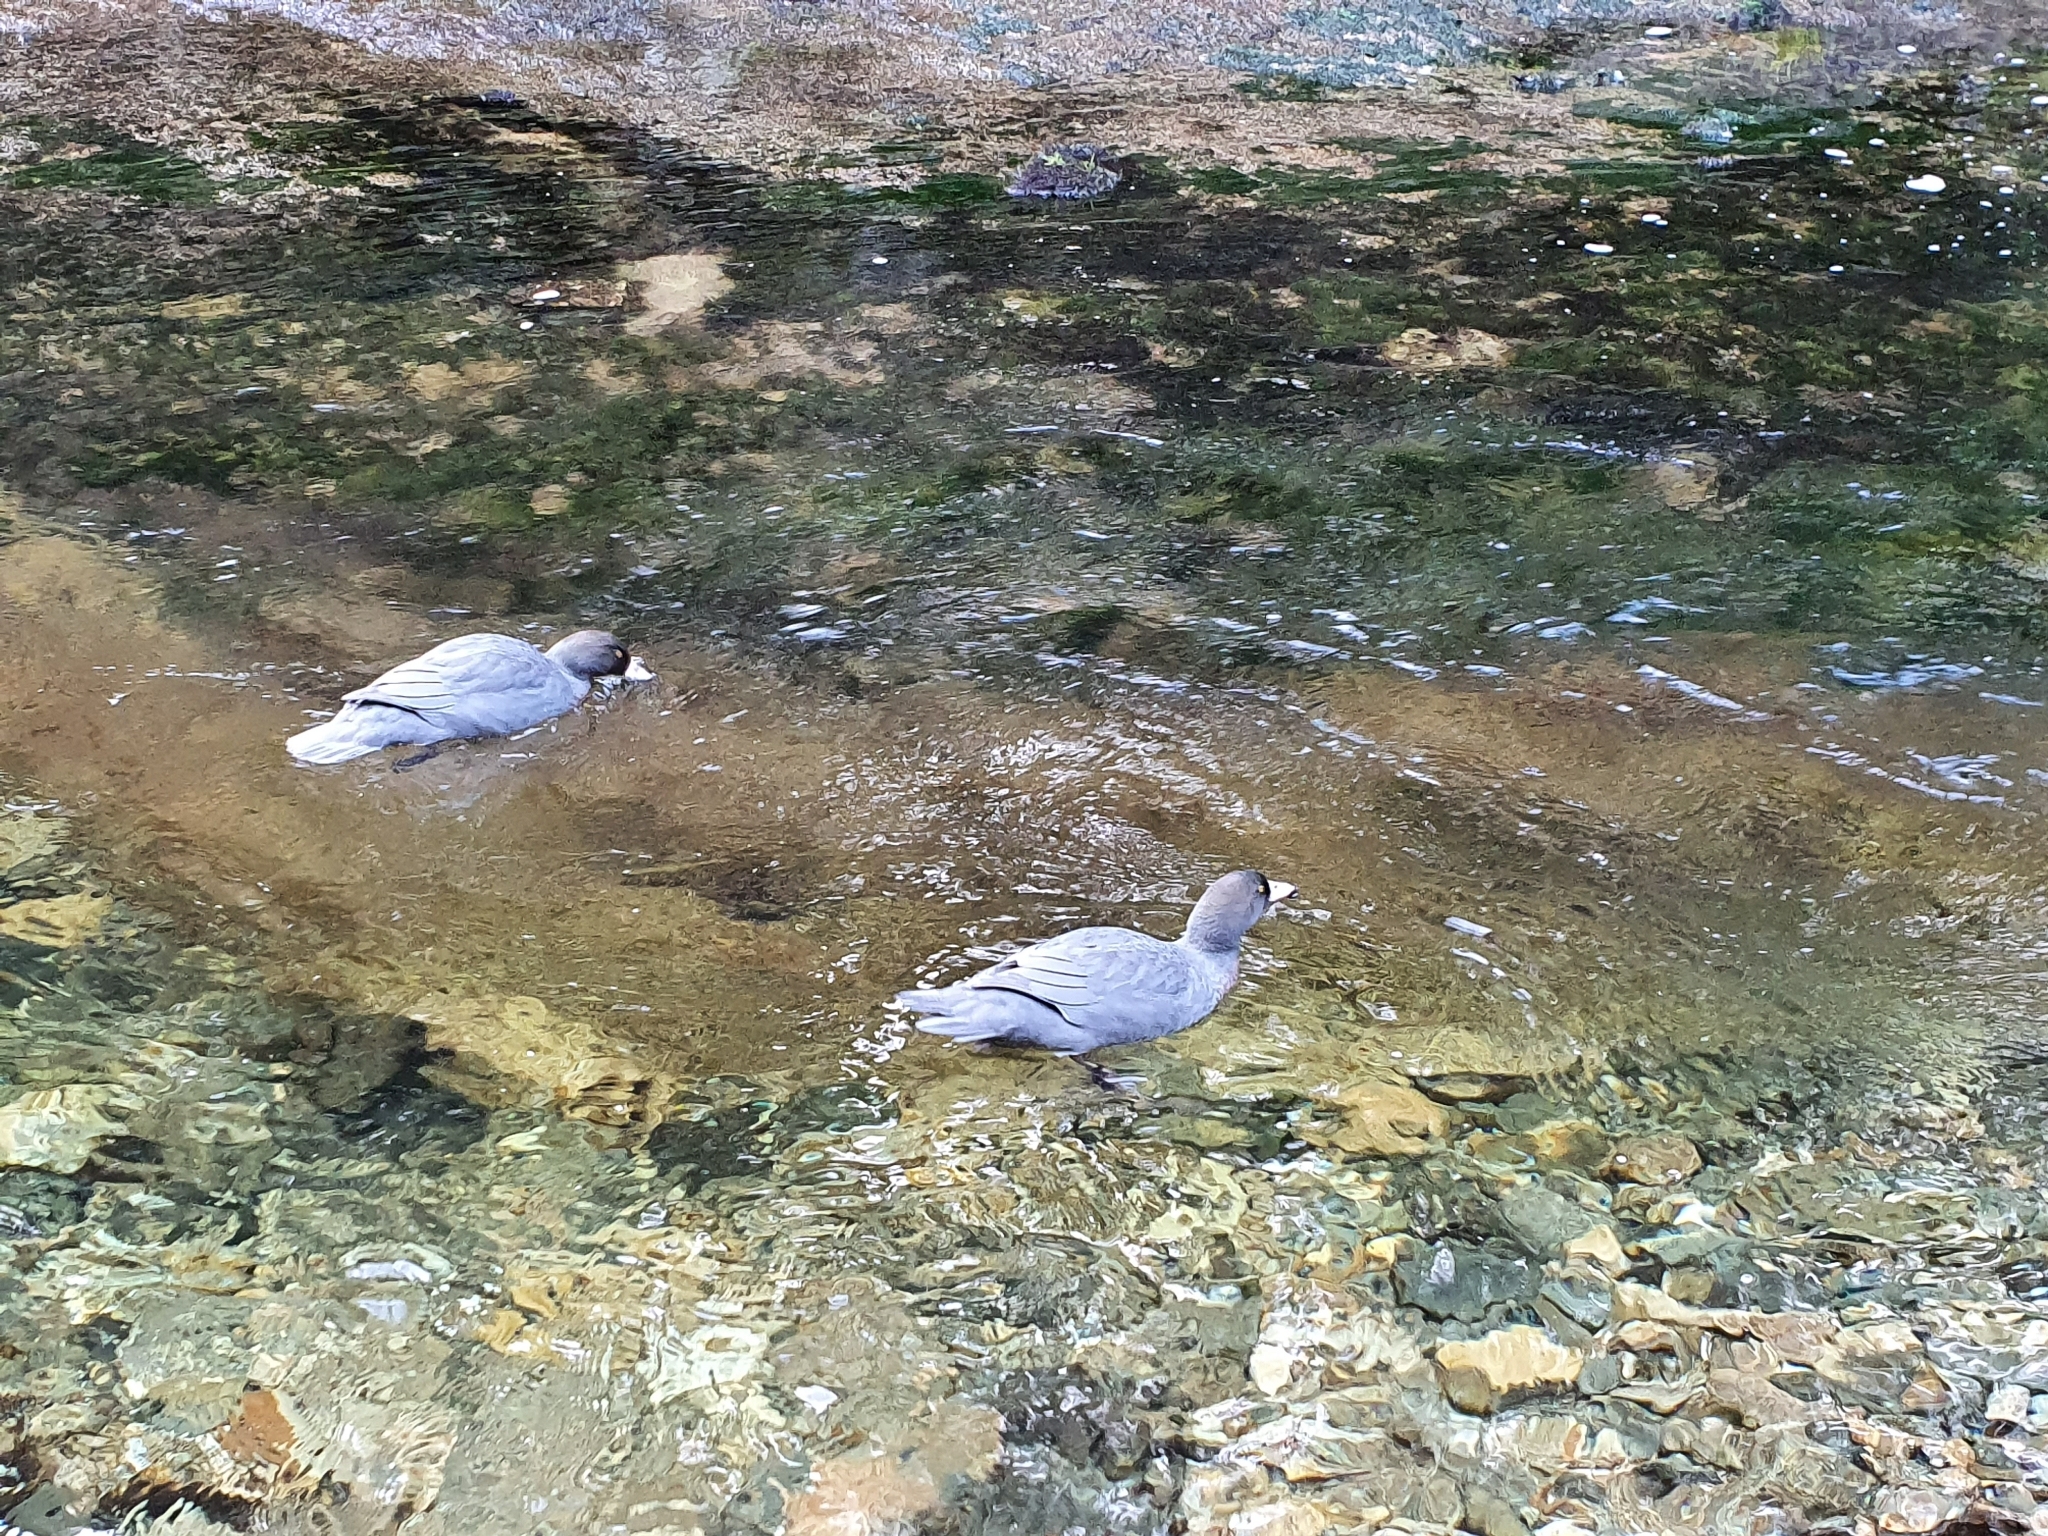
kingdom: Animalia
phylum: Chordata
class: Aves
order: Anseriformes
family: Anatidae
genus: Hymenolaimus
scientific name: Hymenolaimus malacorhynchos
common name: Blue duck
